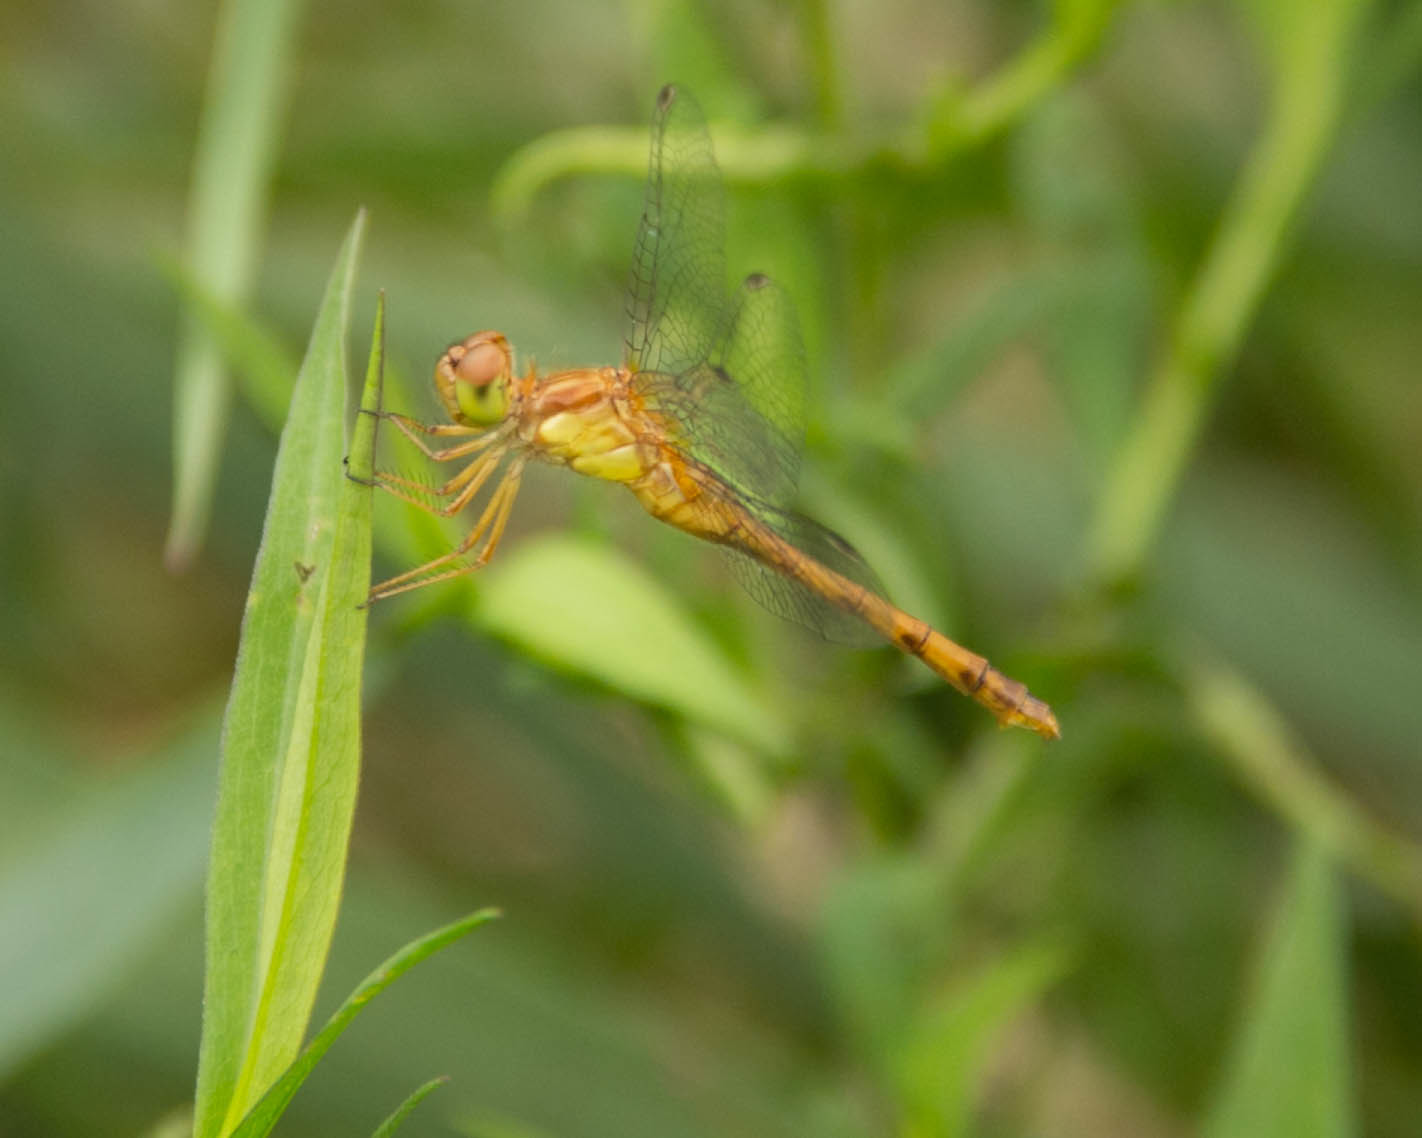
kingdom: Animalia
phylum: Arthropoda
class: Insecta
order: Odonata
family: Libellulidae
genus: Sympetrum
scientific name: Sympetrum vicinum
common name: Autumn meadowhawk
